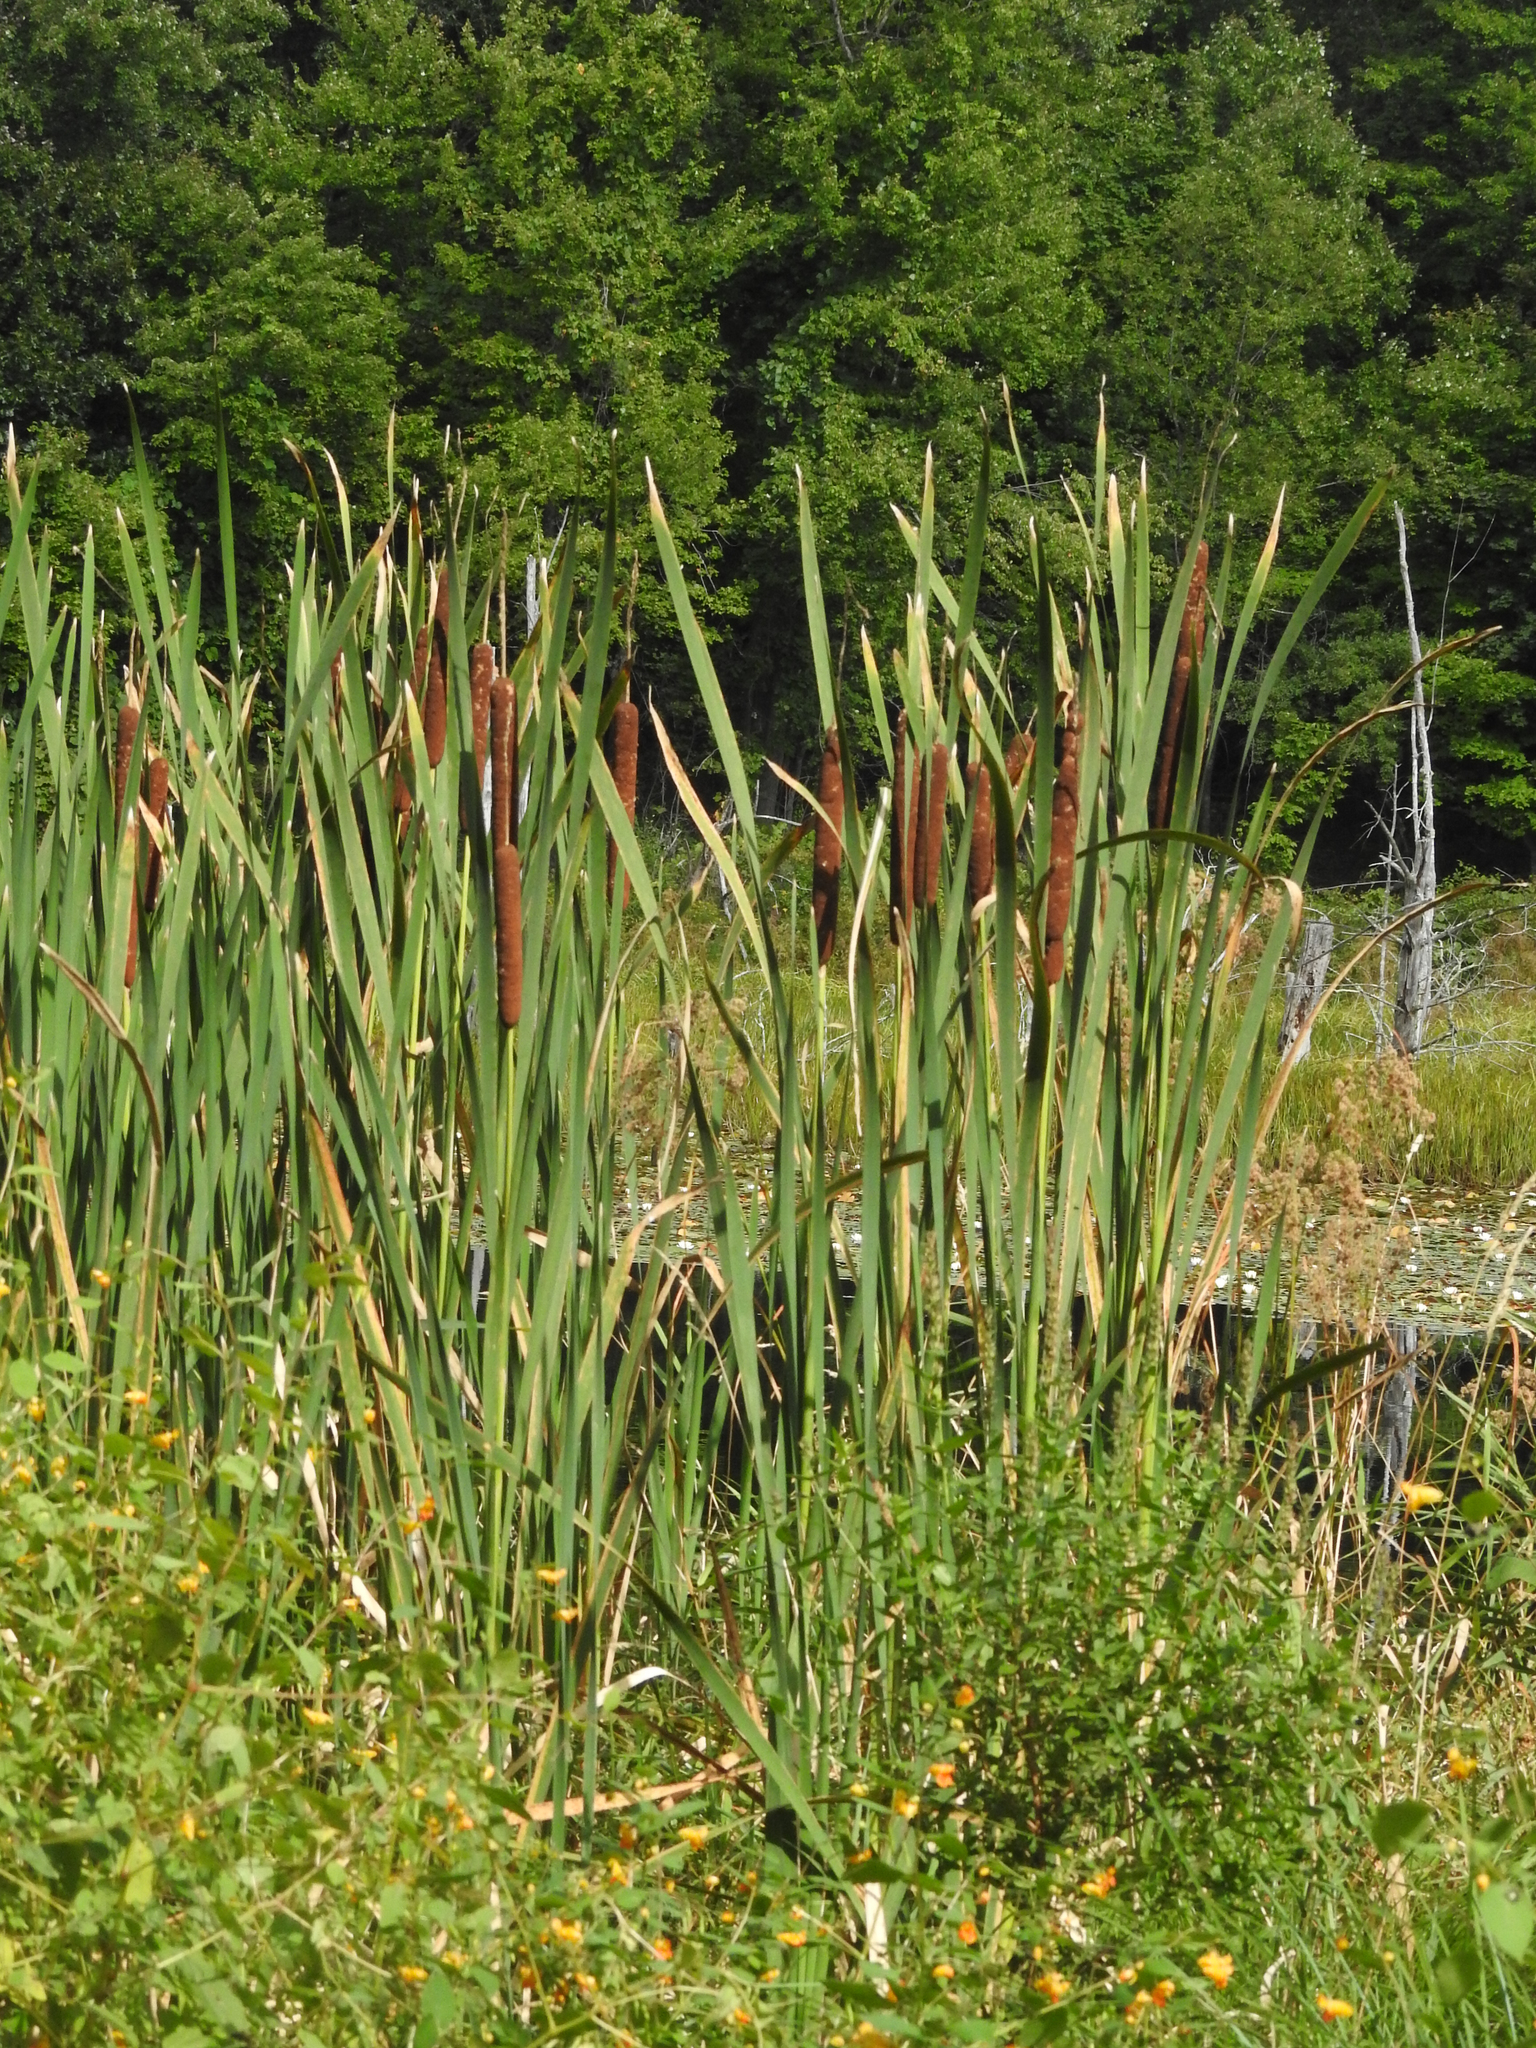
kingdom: Plantae
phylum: Tracheophyta
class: Liliopsida
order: Poales
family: Typhaceae
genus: Typha
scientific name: Typha latifolia
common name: Broadleaf cattail
